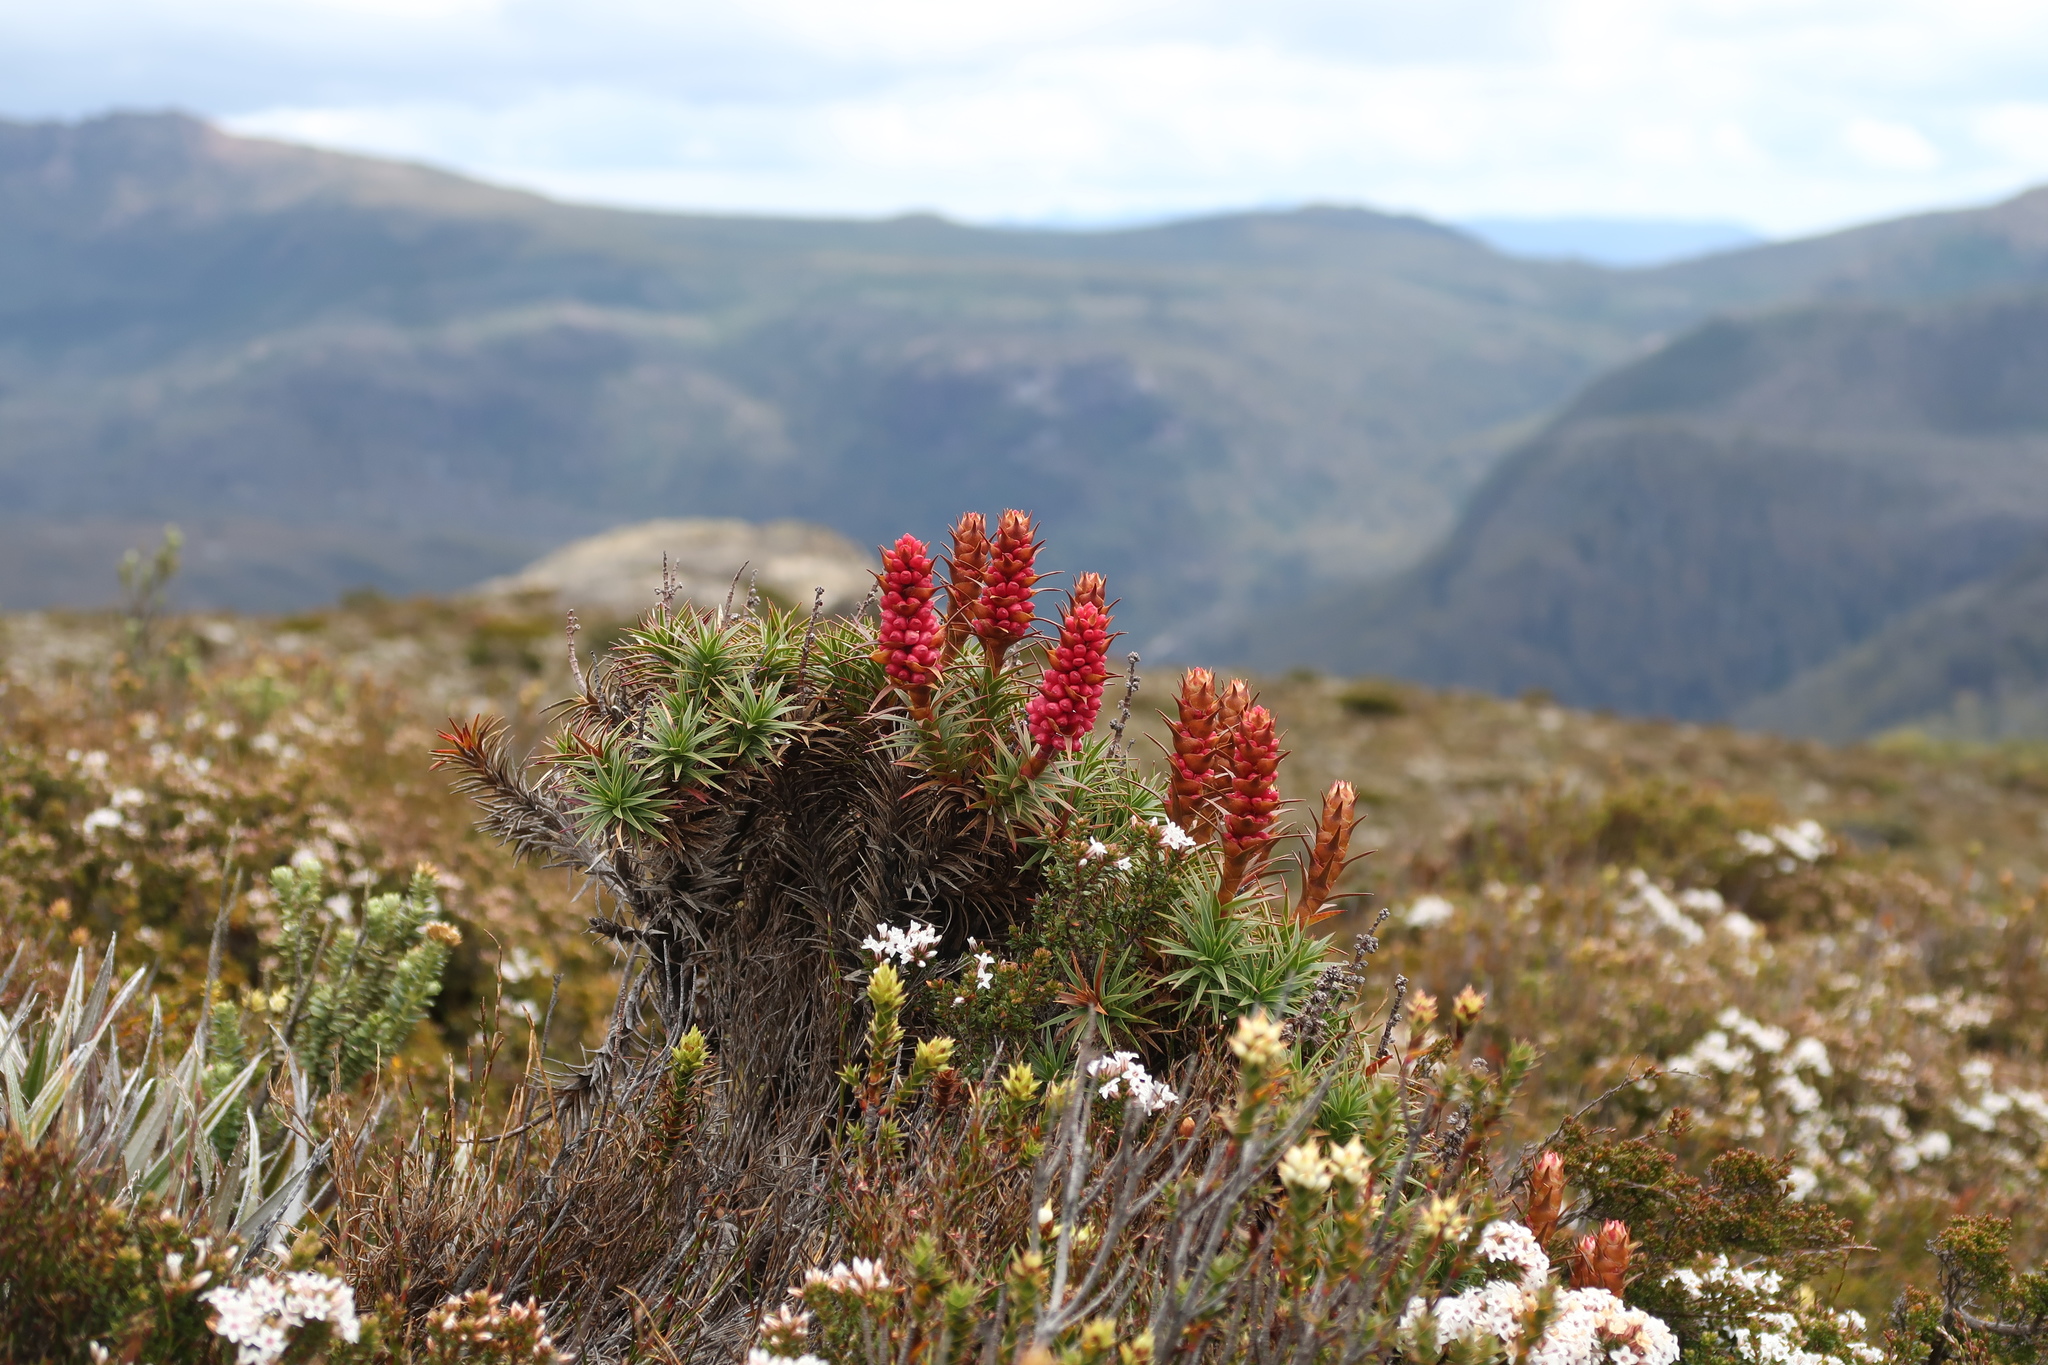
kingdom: Plantae
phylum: Tracheophyta
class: Magnoliopsida
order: Ericales
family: Ericaceae
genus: Dracophyllum
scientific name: Dracophyllum persistentifolium
